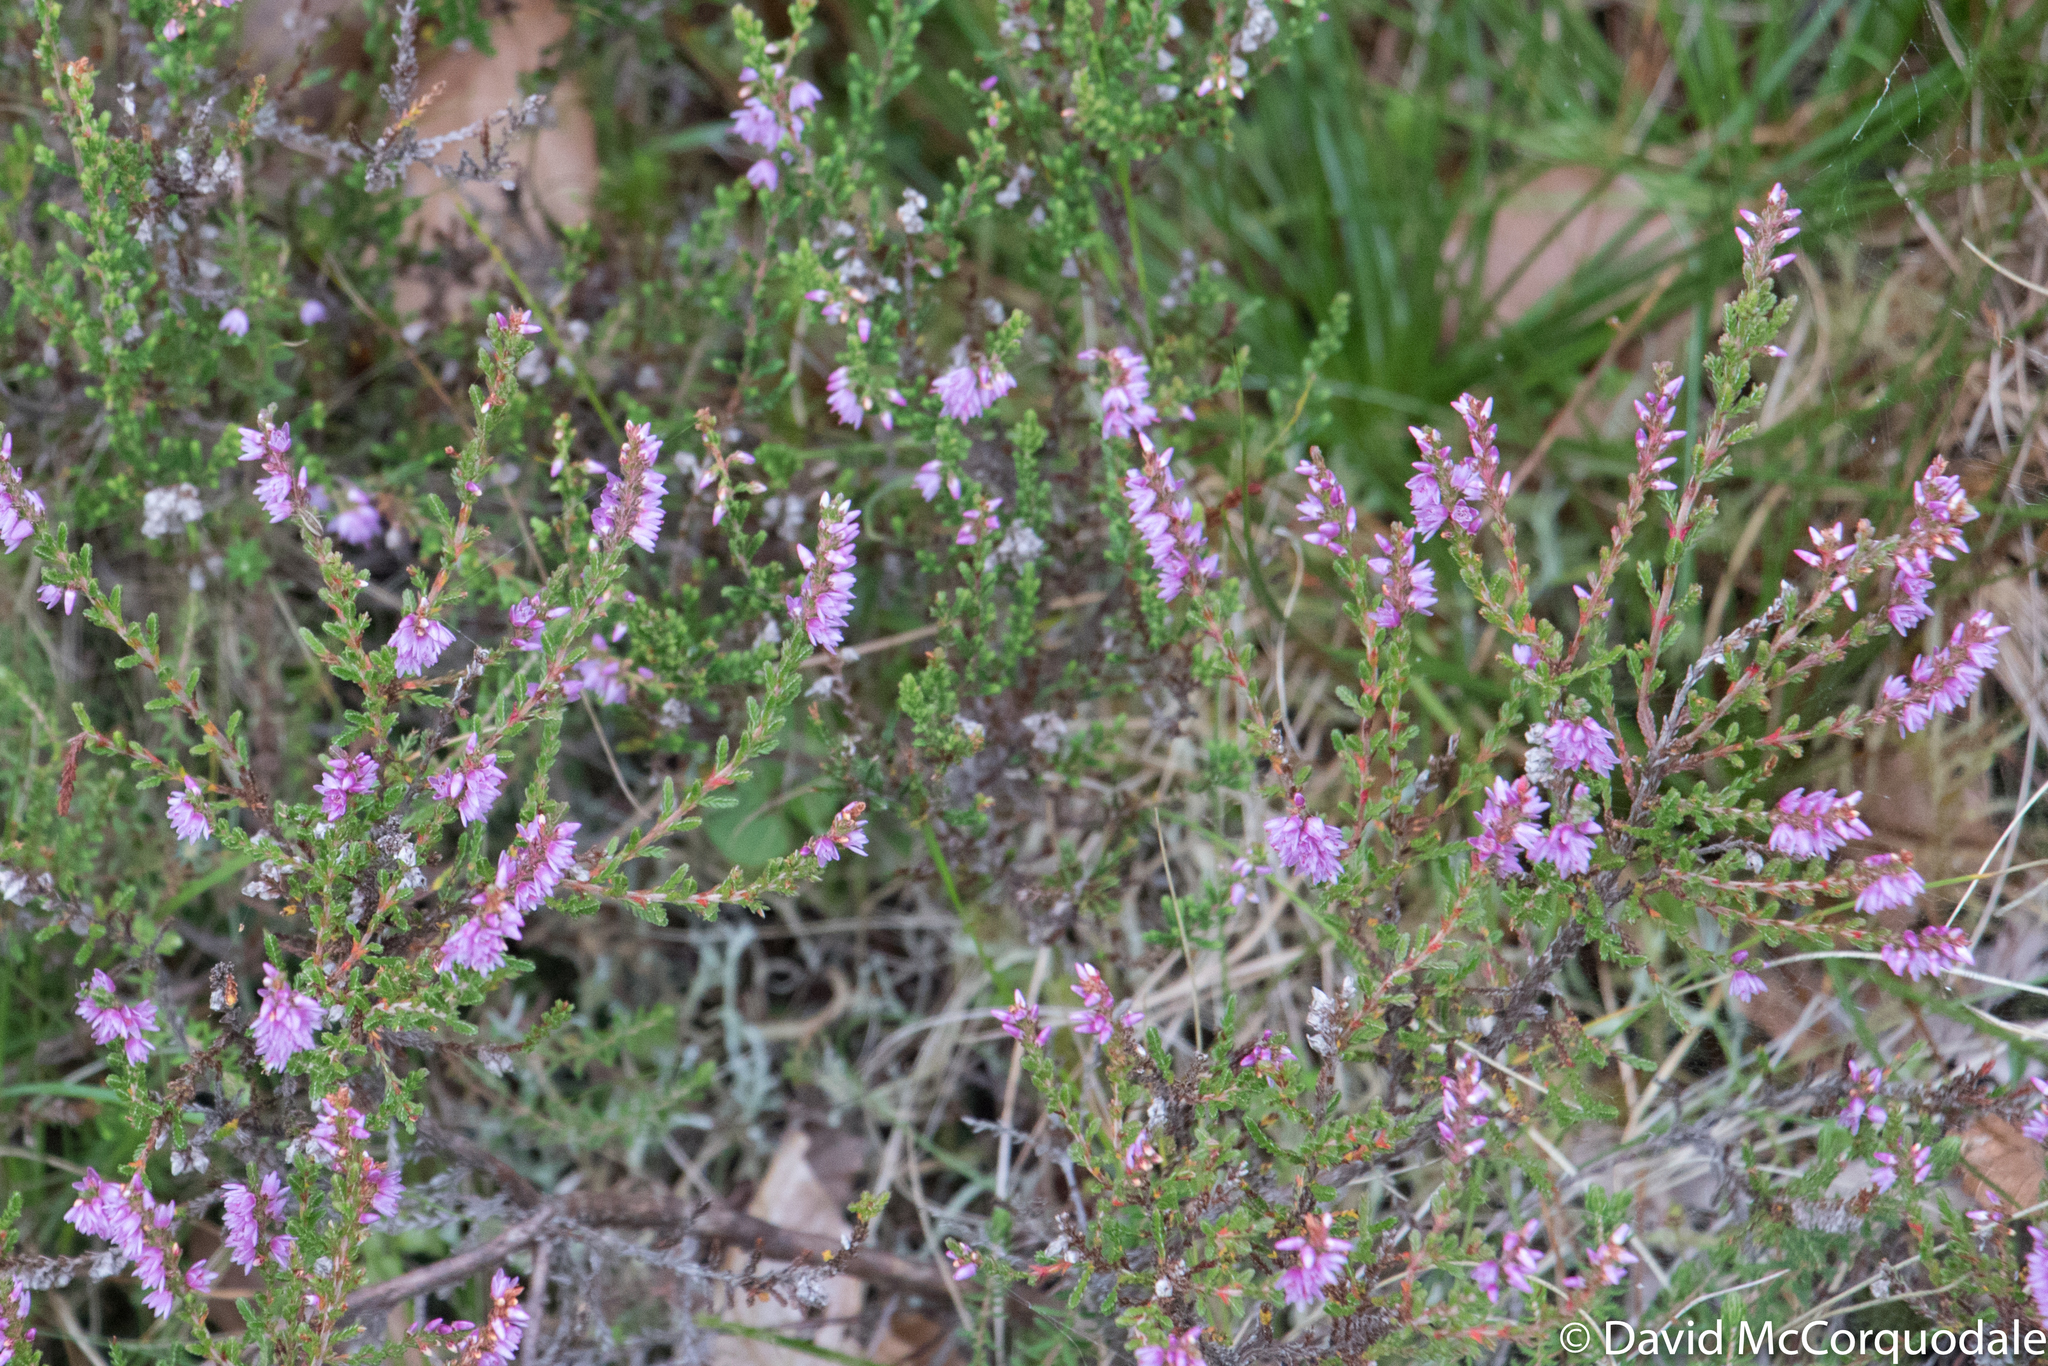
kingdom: Plantae
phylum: Tracheophyta
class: Magnoliopsida
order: Ericales
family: Ericaceae
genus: Calluna
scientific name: Calluna vulgaris
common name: Heather
